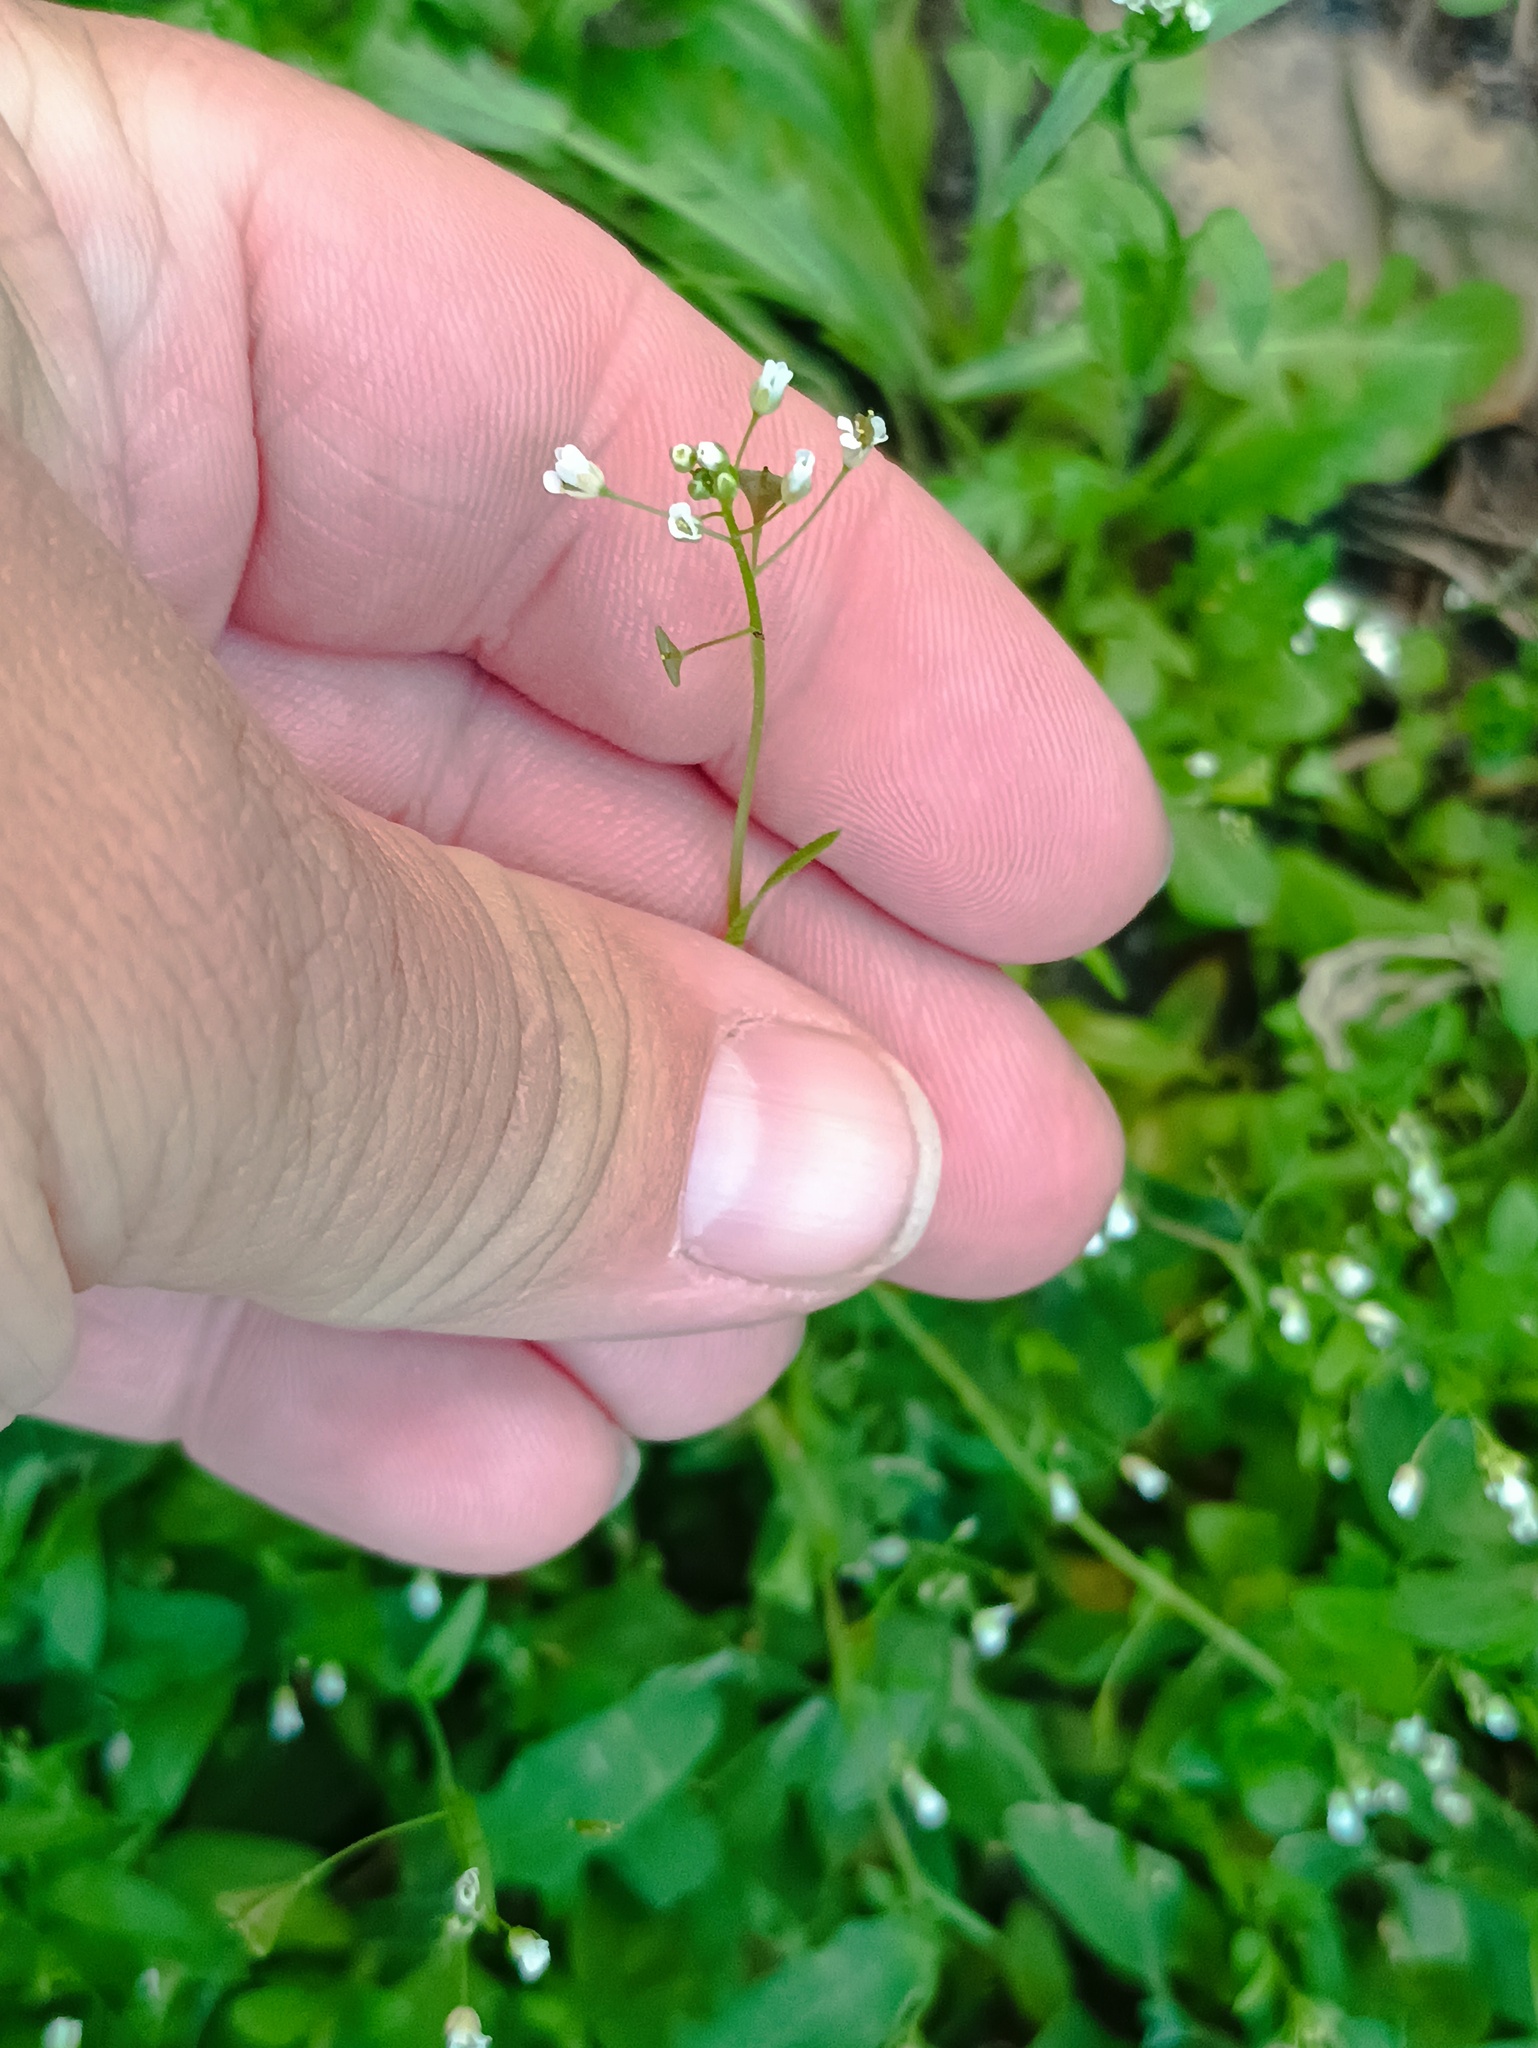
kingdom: Plantae
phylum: Tracheophyta
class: Magnoliopsida
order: Brassicales
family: Brassicaceae
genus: Capsella
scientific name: Capsella bursa-pastoris
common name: Shepherd's purse
